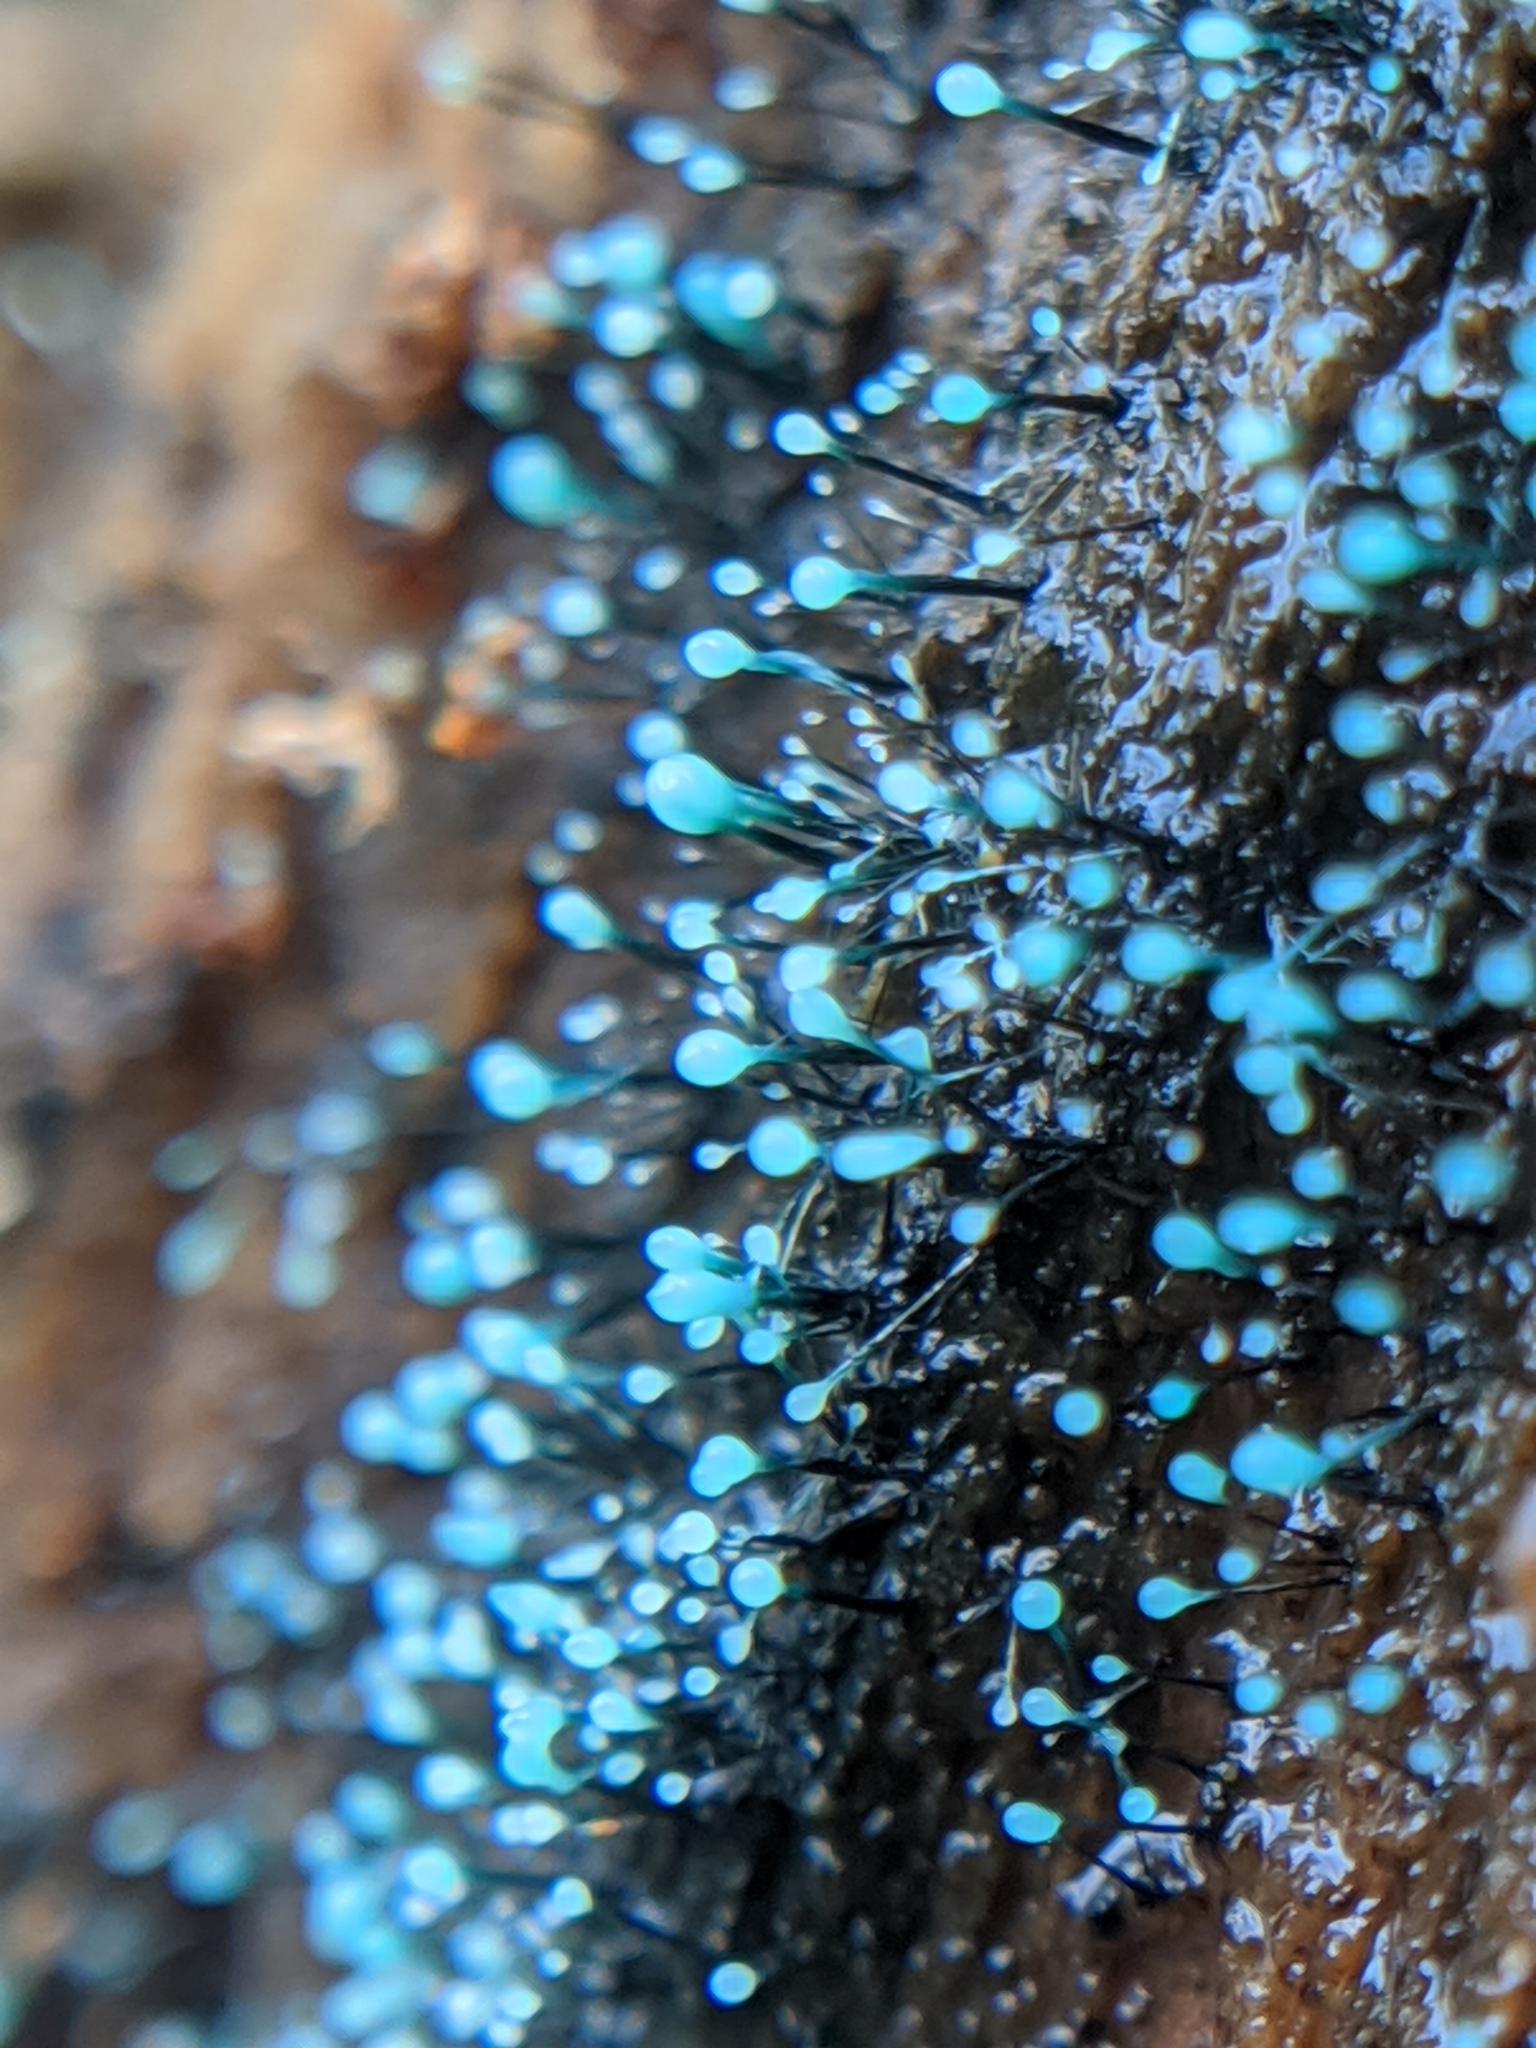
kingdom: Fungi
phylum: Ascomycota
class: Leotiomycetes
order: Leotiales
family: Tympanidaceae
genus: Dendrostilbella
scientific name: Dendrostilbella smaragdina
